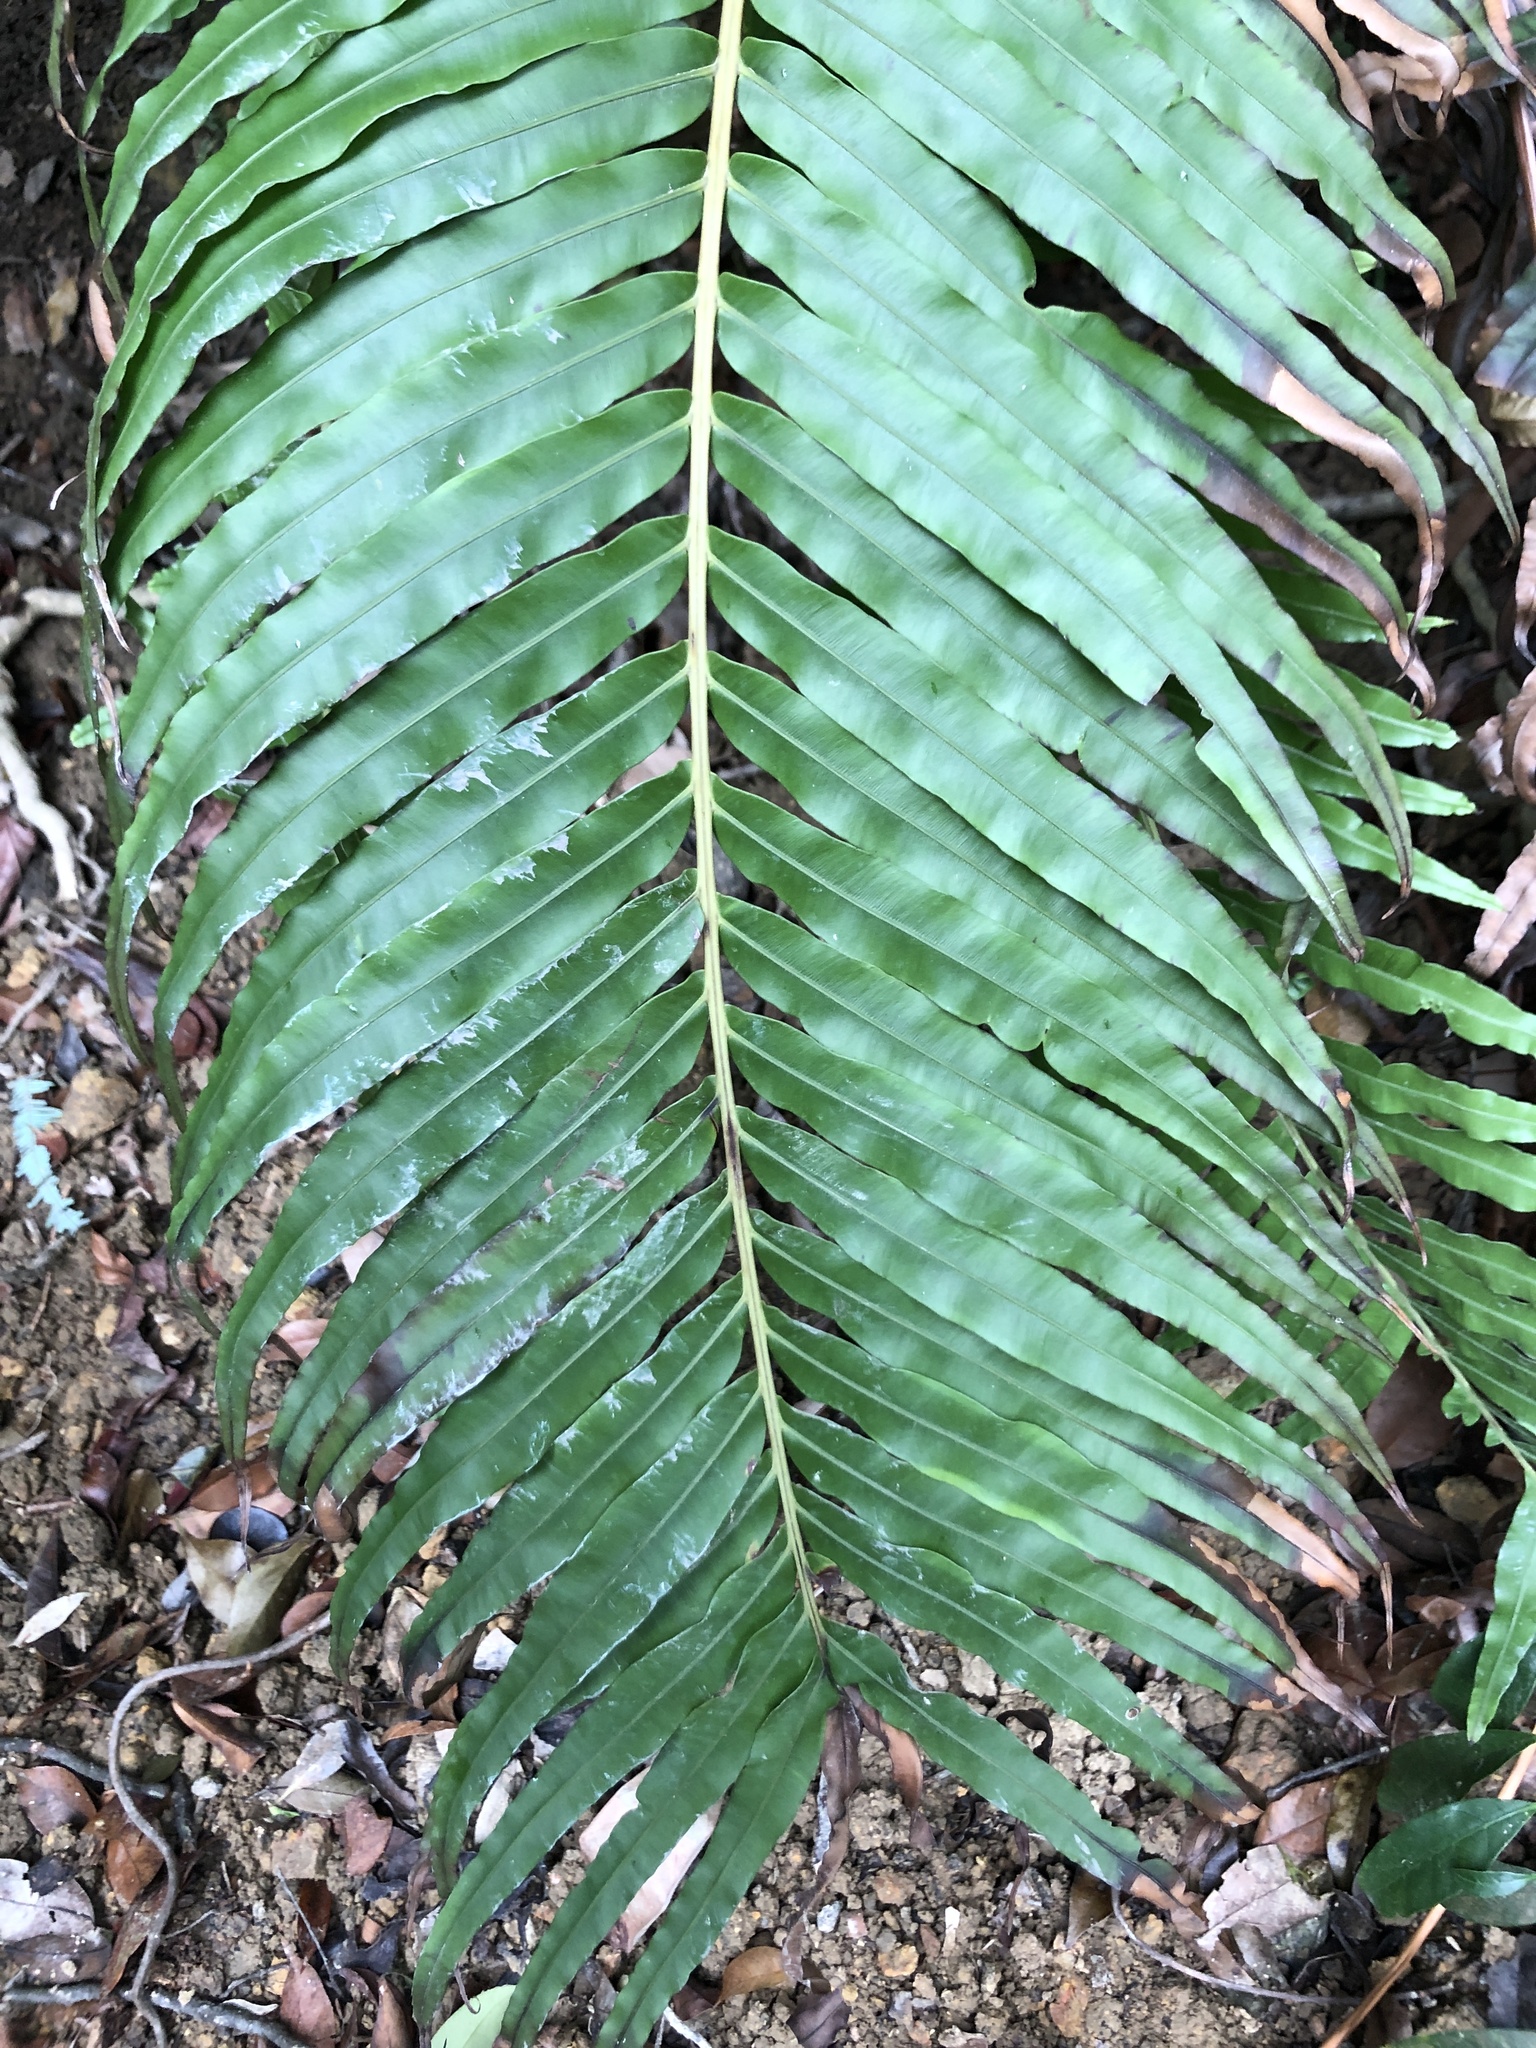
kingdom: Plantae
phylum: Tracheophyta
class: Polypodiopsida
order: Polypodiales
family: Blechnaceae
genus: Blechnopsis
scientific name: Blechnopsis orientalis
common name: Oriental blechnum
